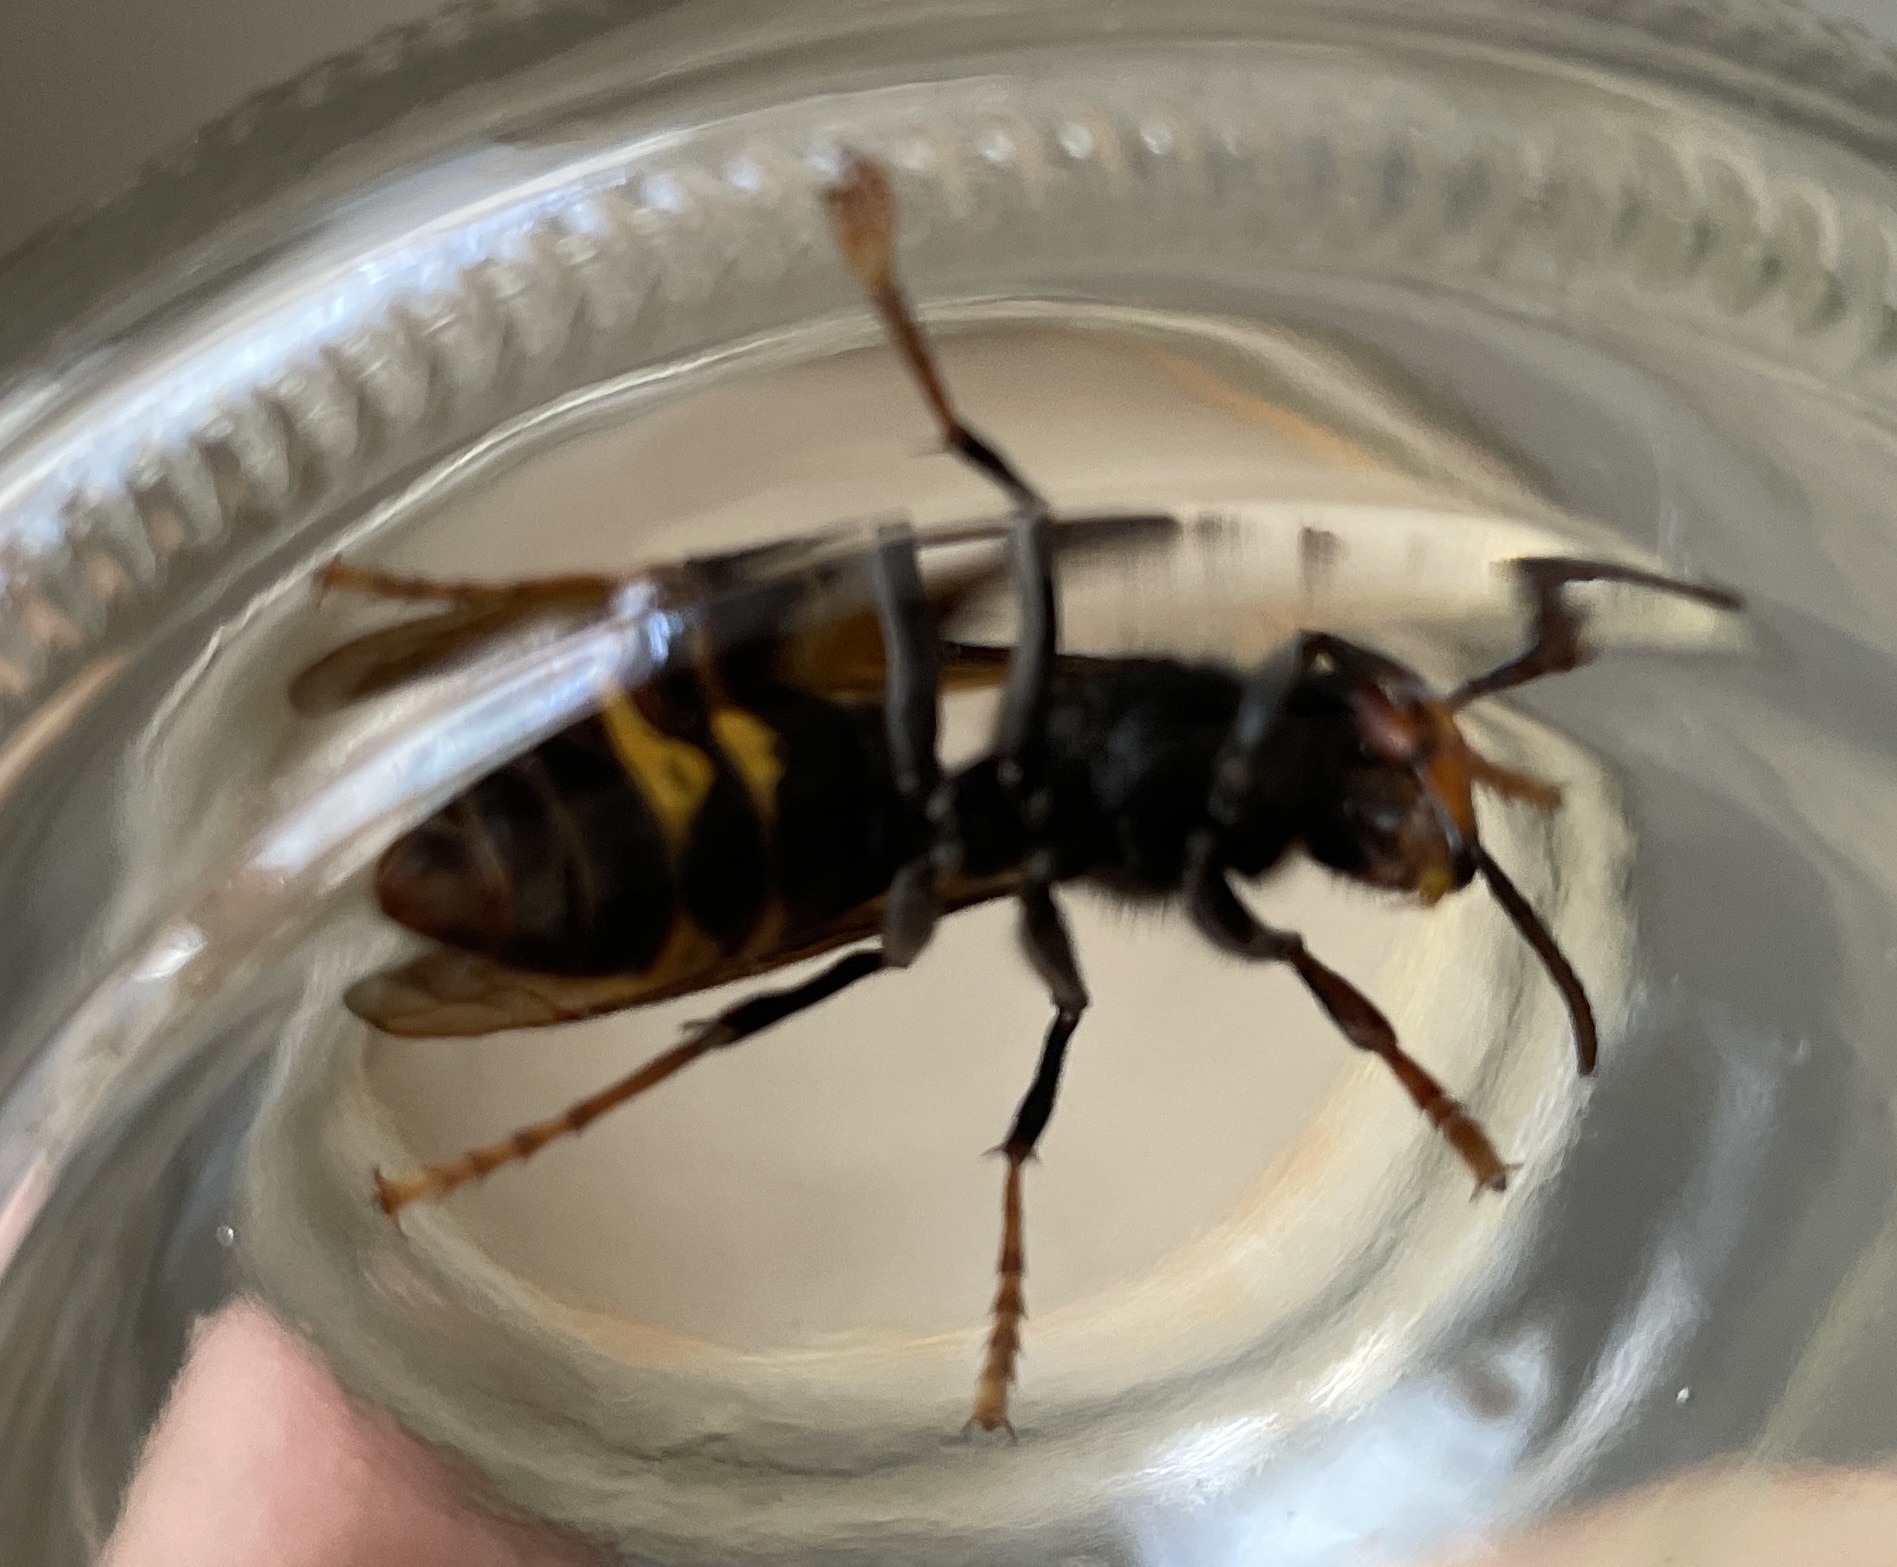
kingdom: Animalia
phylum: Arthropoda
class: Insecta
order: Hymenoptera
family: Vespidae
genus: Vespa
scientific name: Vespa velutina
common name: Asian hornet
